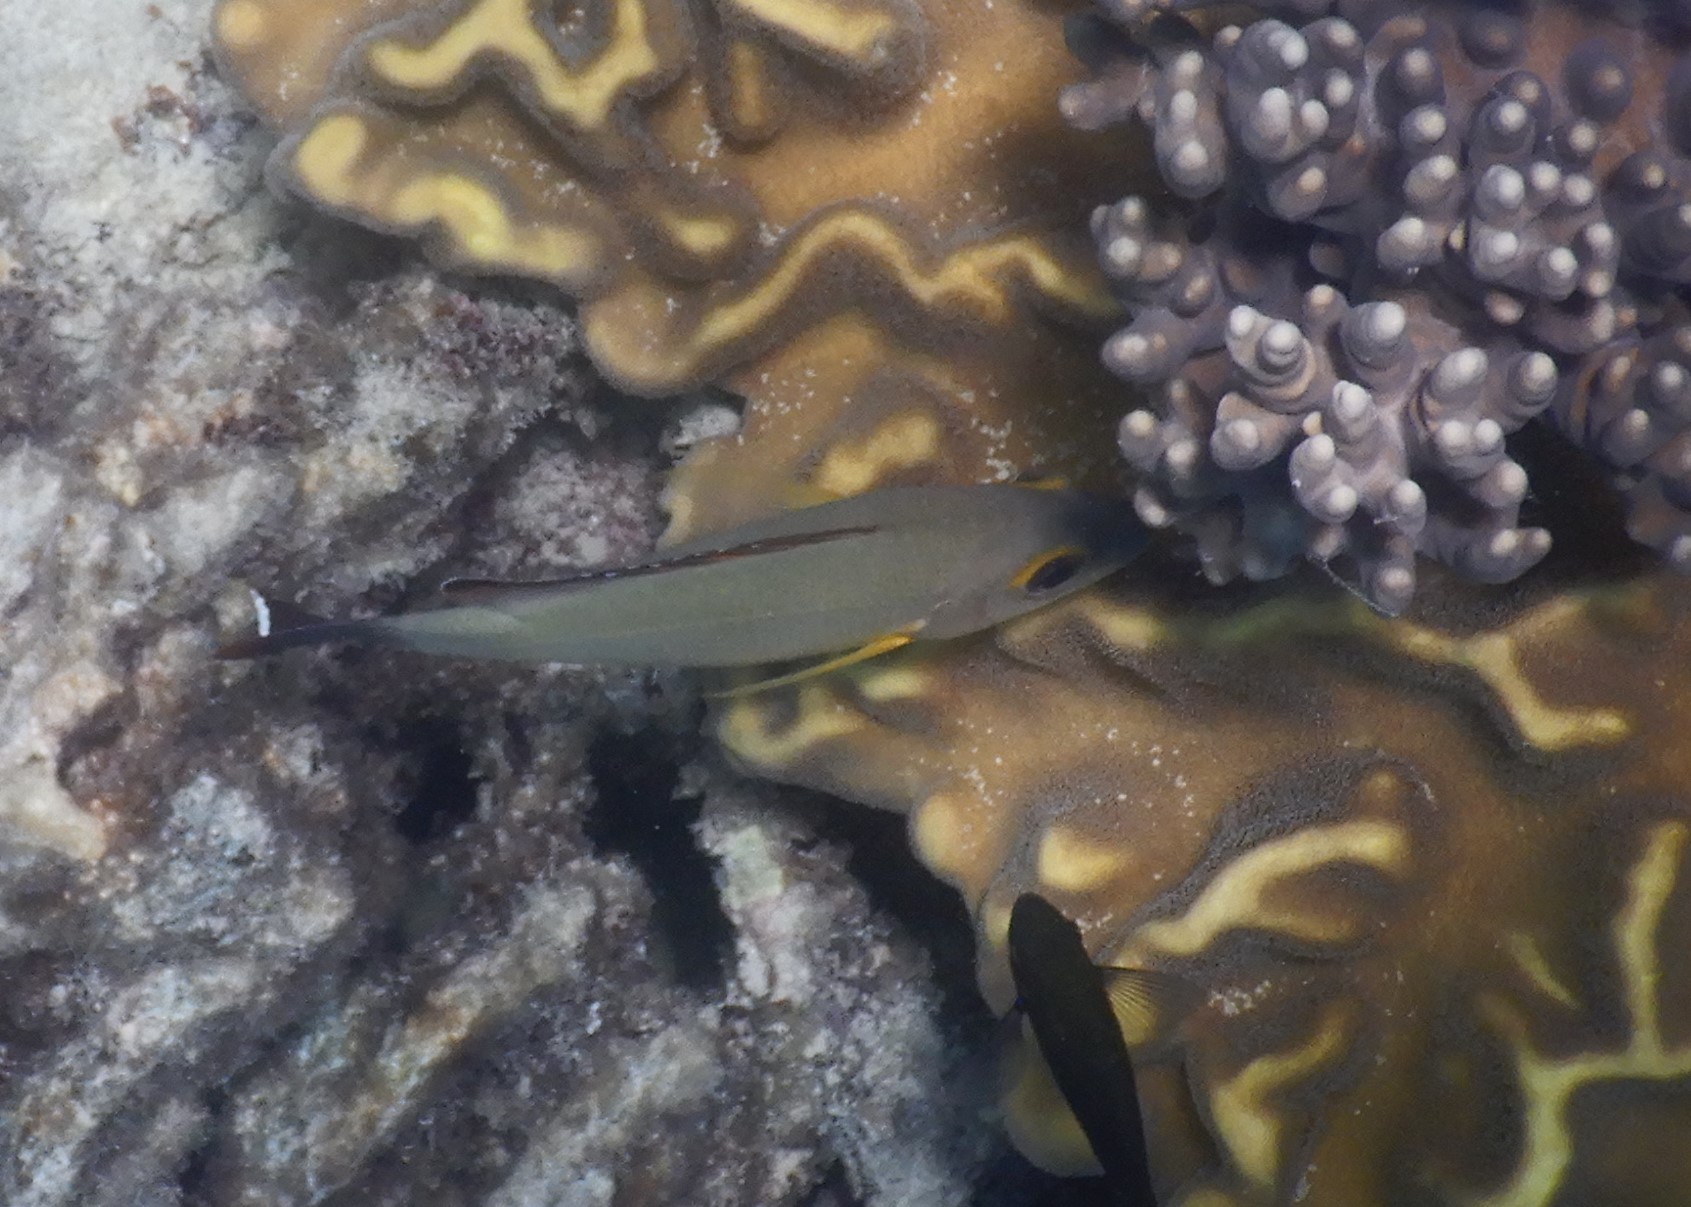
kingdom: Animalia
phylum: Chordata
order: Perciformes
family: Lutjanidae
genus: Lutjanus
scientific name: Lutjanus fulvus
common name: Blacktail snapper
